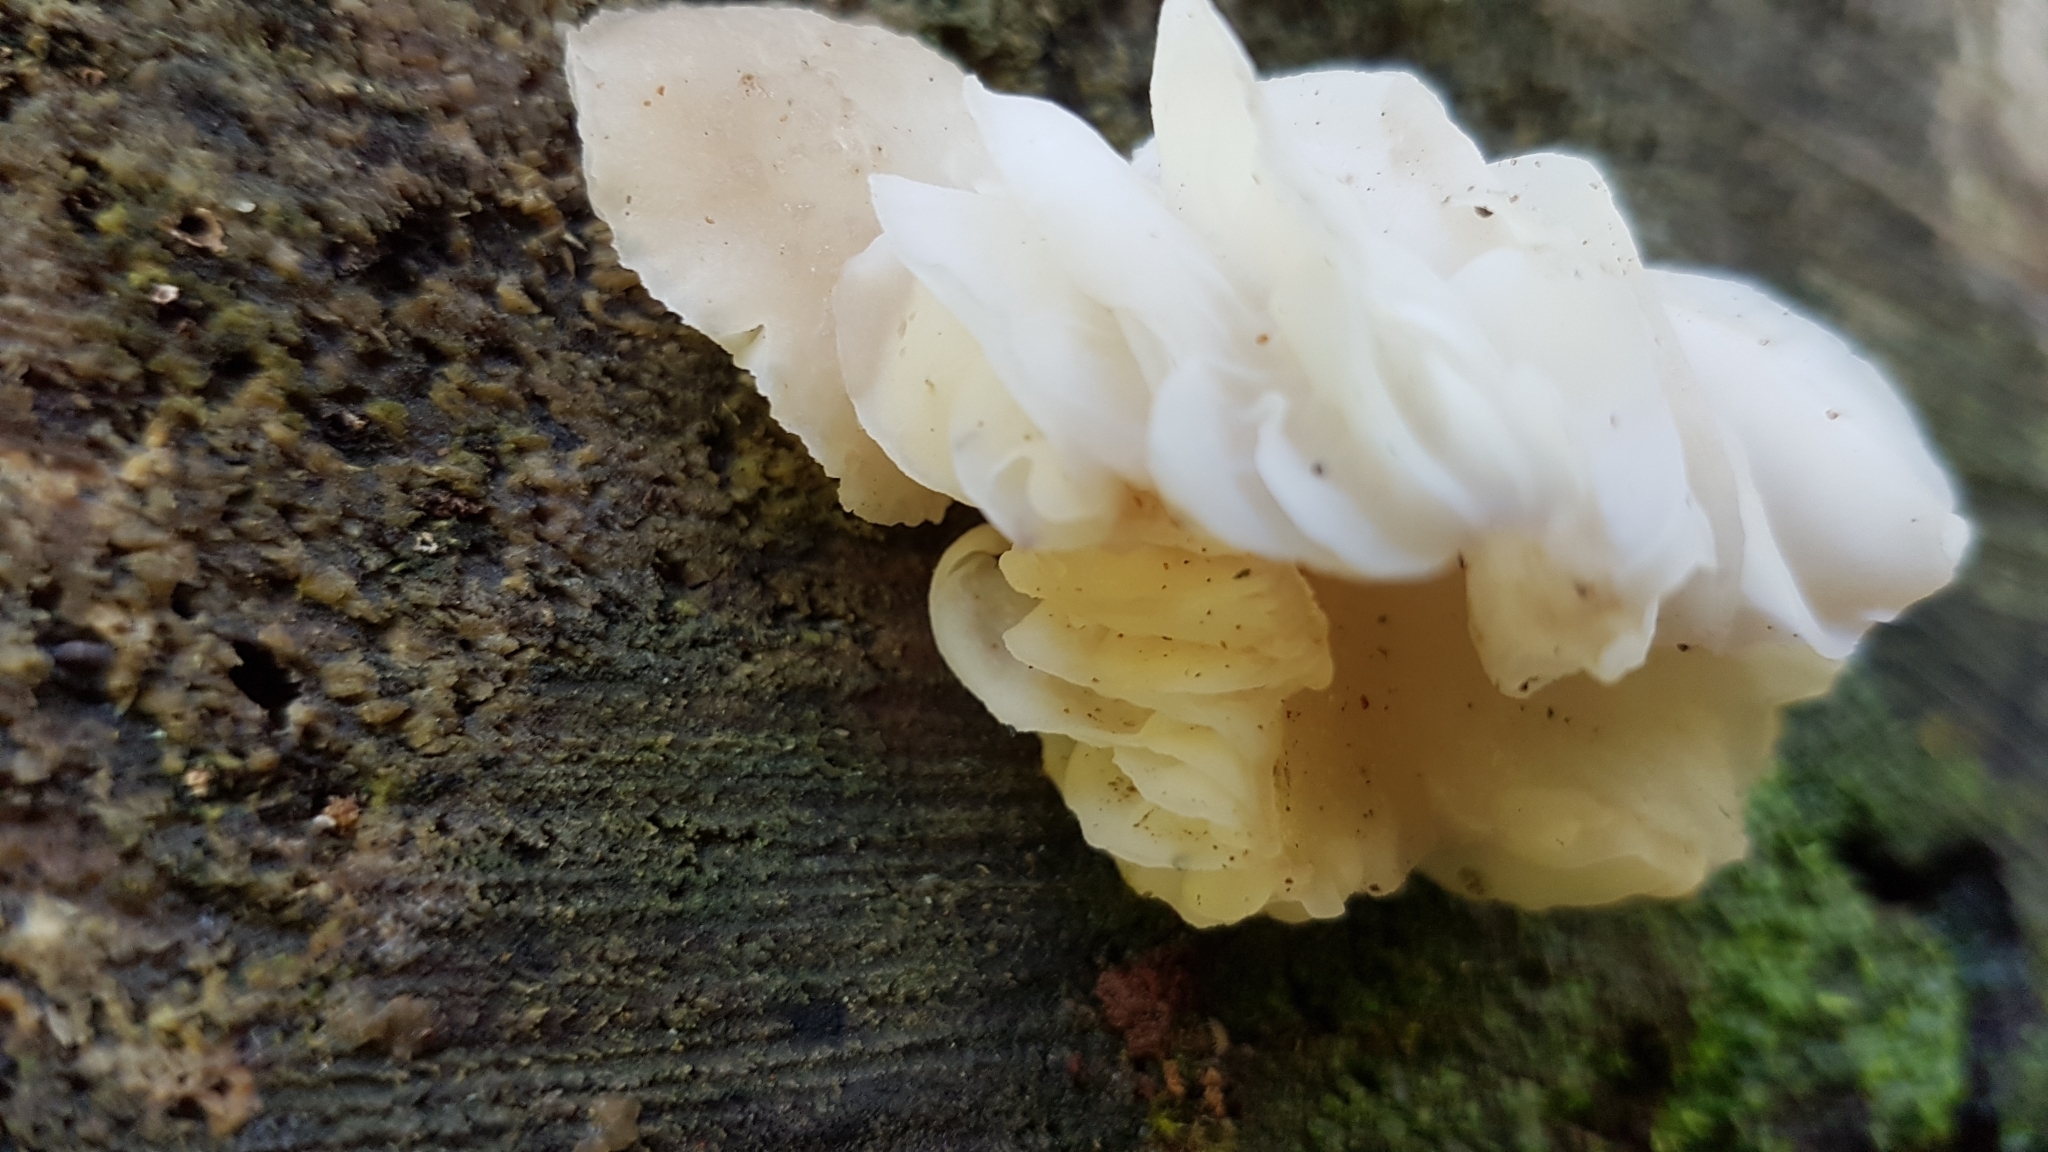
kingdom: Fungi
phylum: Basidiomycota
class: Agaricomycetes
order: Agaricales
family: Physalacriaceae
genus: Oudemansiella
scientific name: Oudemansiella australis
